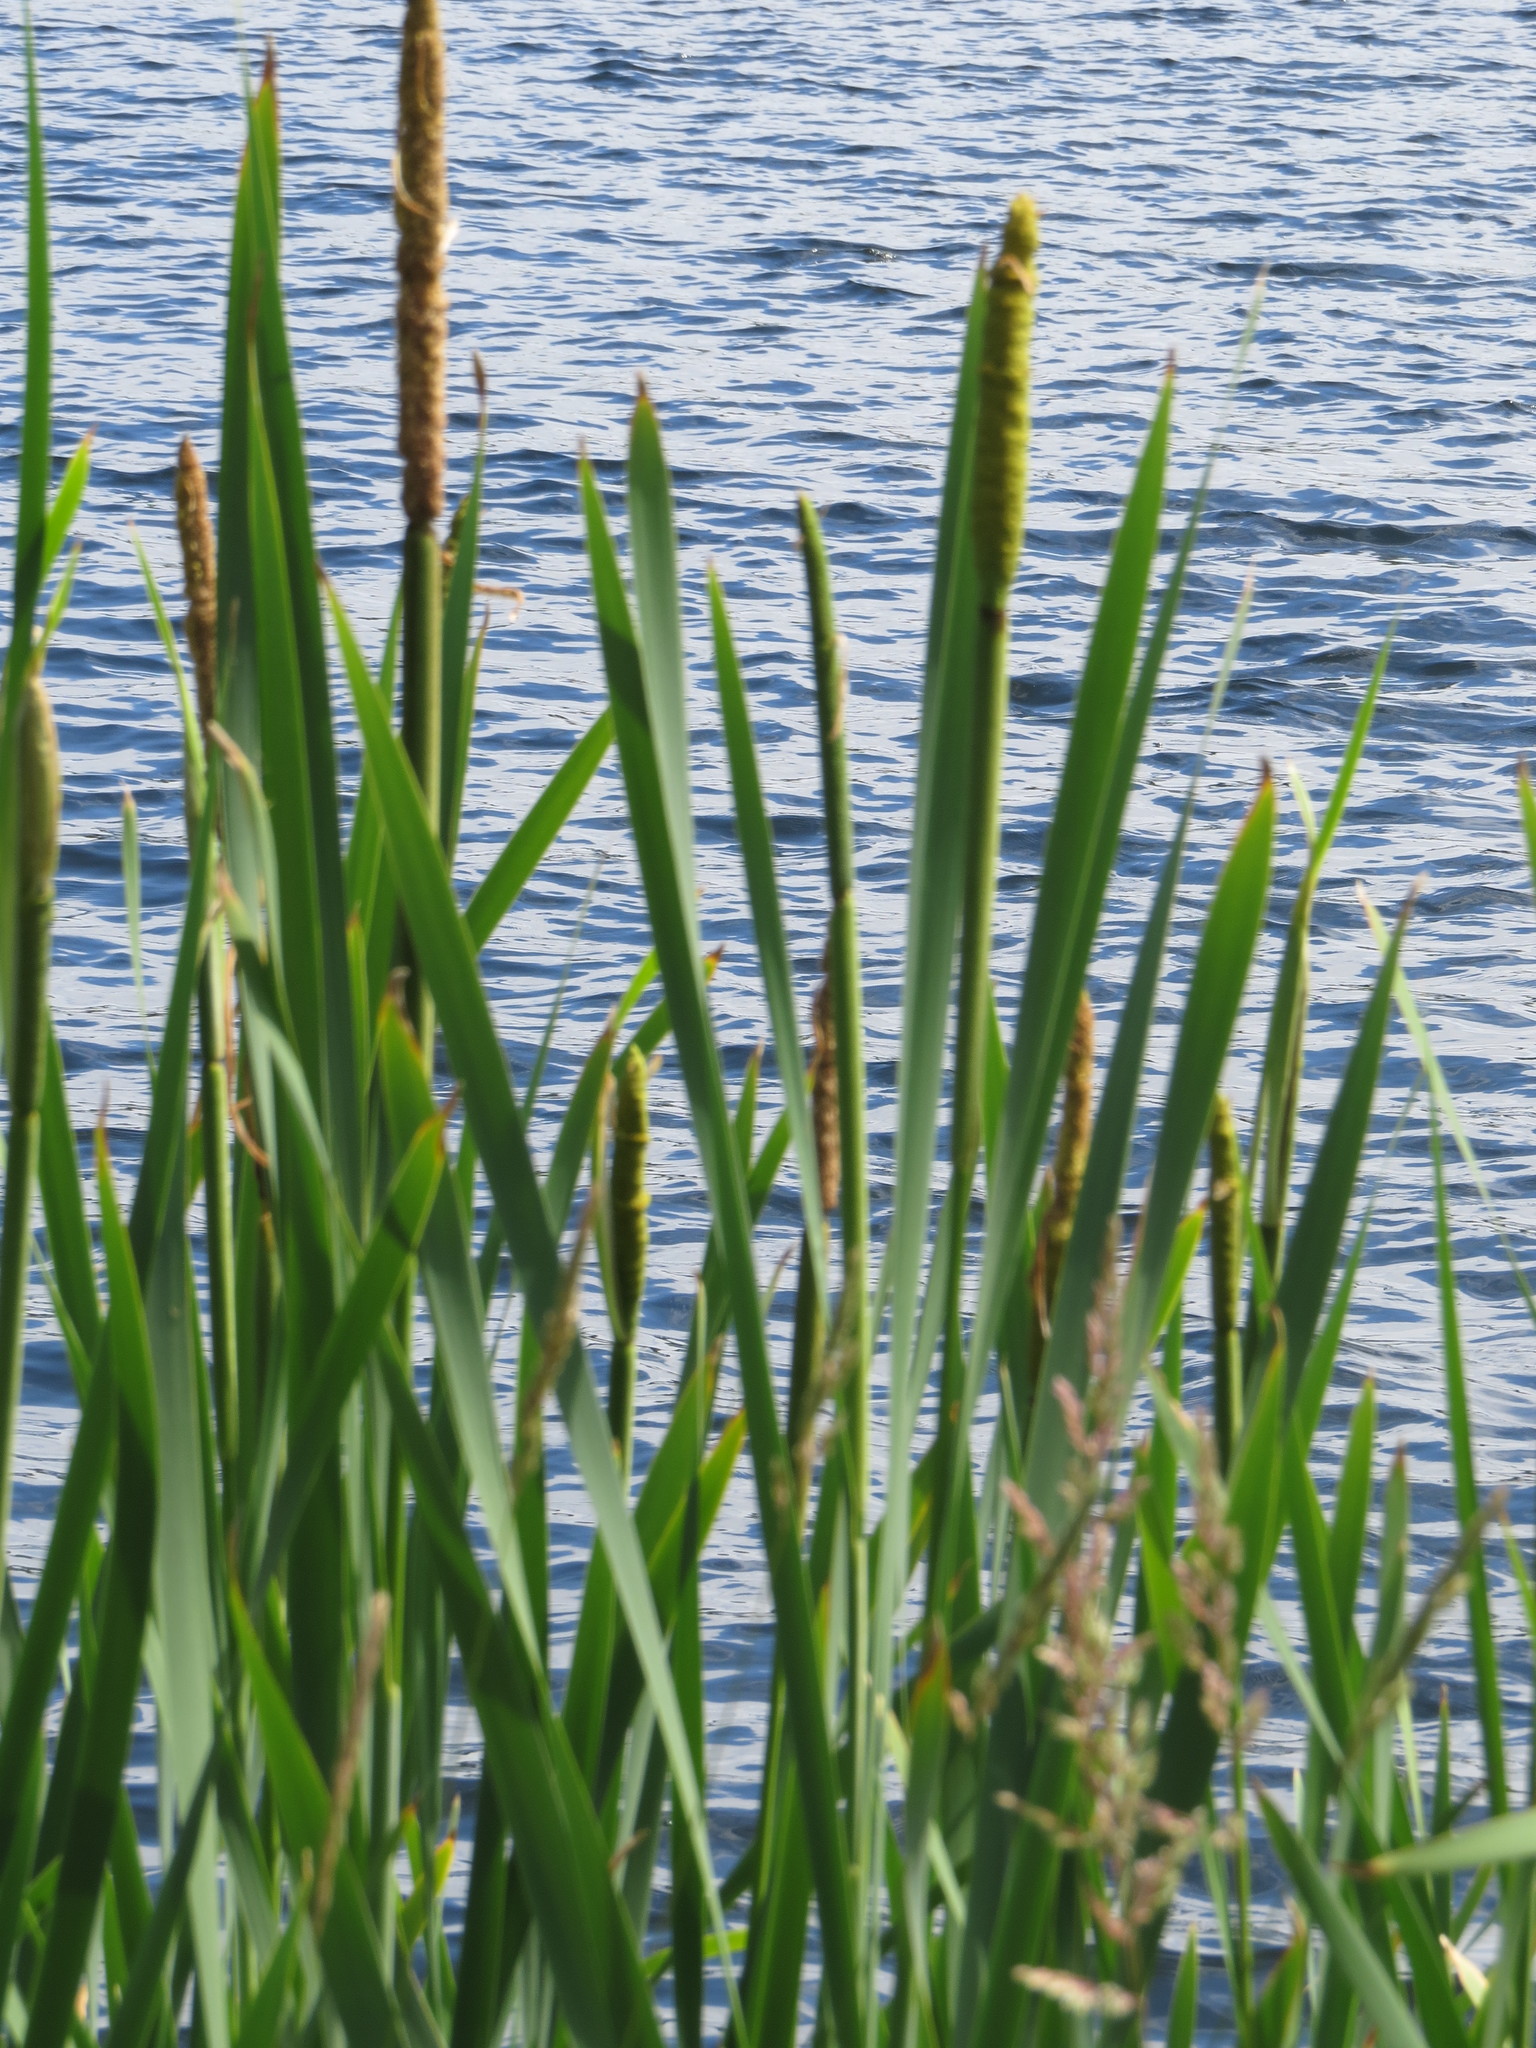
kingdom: Plantae
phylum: Tracheophyta
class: Liliopsida
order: Poales
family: Typhaceae
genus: Typha
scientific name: Typha latifolia
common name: Broadleaf cattail
